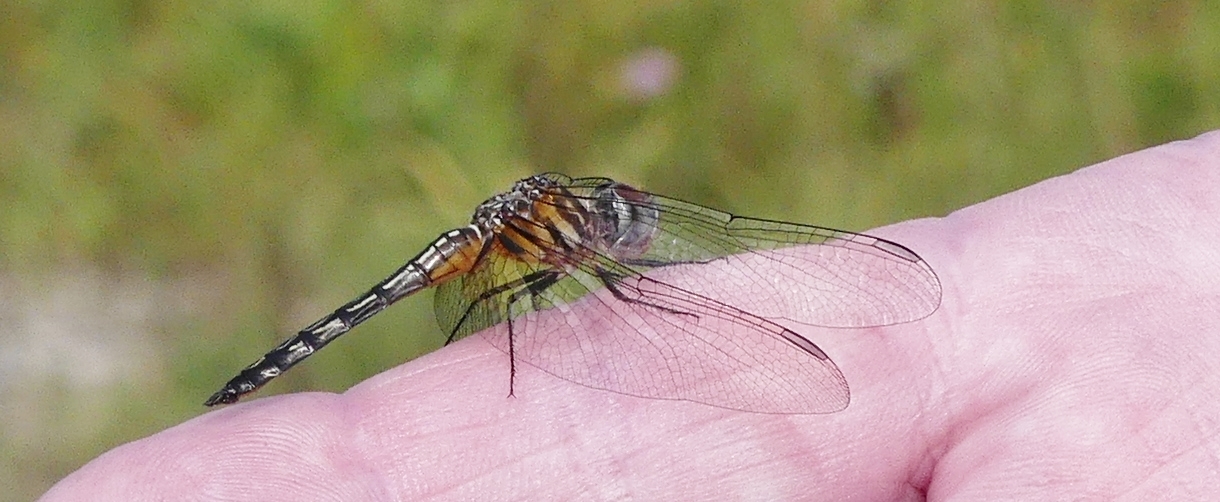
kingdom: Animalia
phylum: Arthropoda
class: Insecta
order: Odonata
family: Libellulidae
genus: Pachydiplax
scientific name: Pachydiplax longipennis
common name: Blue dasher
